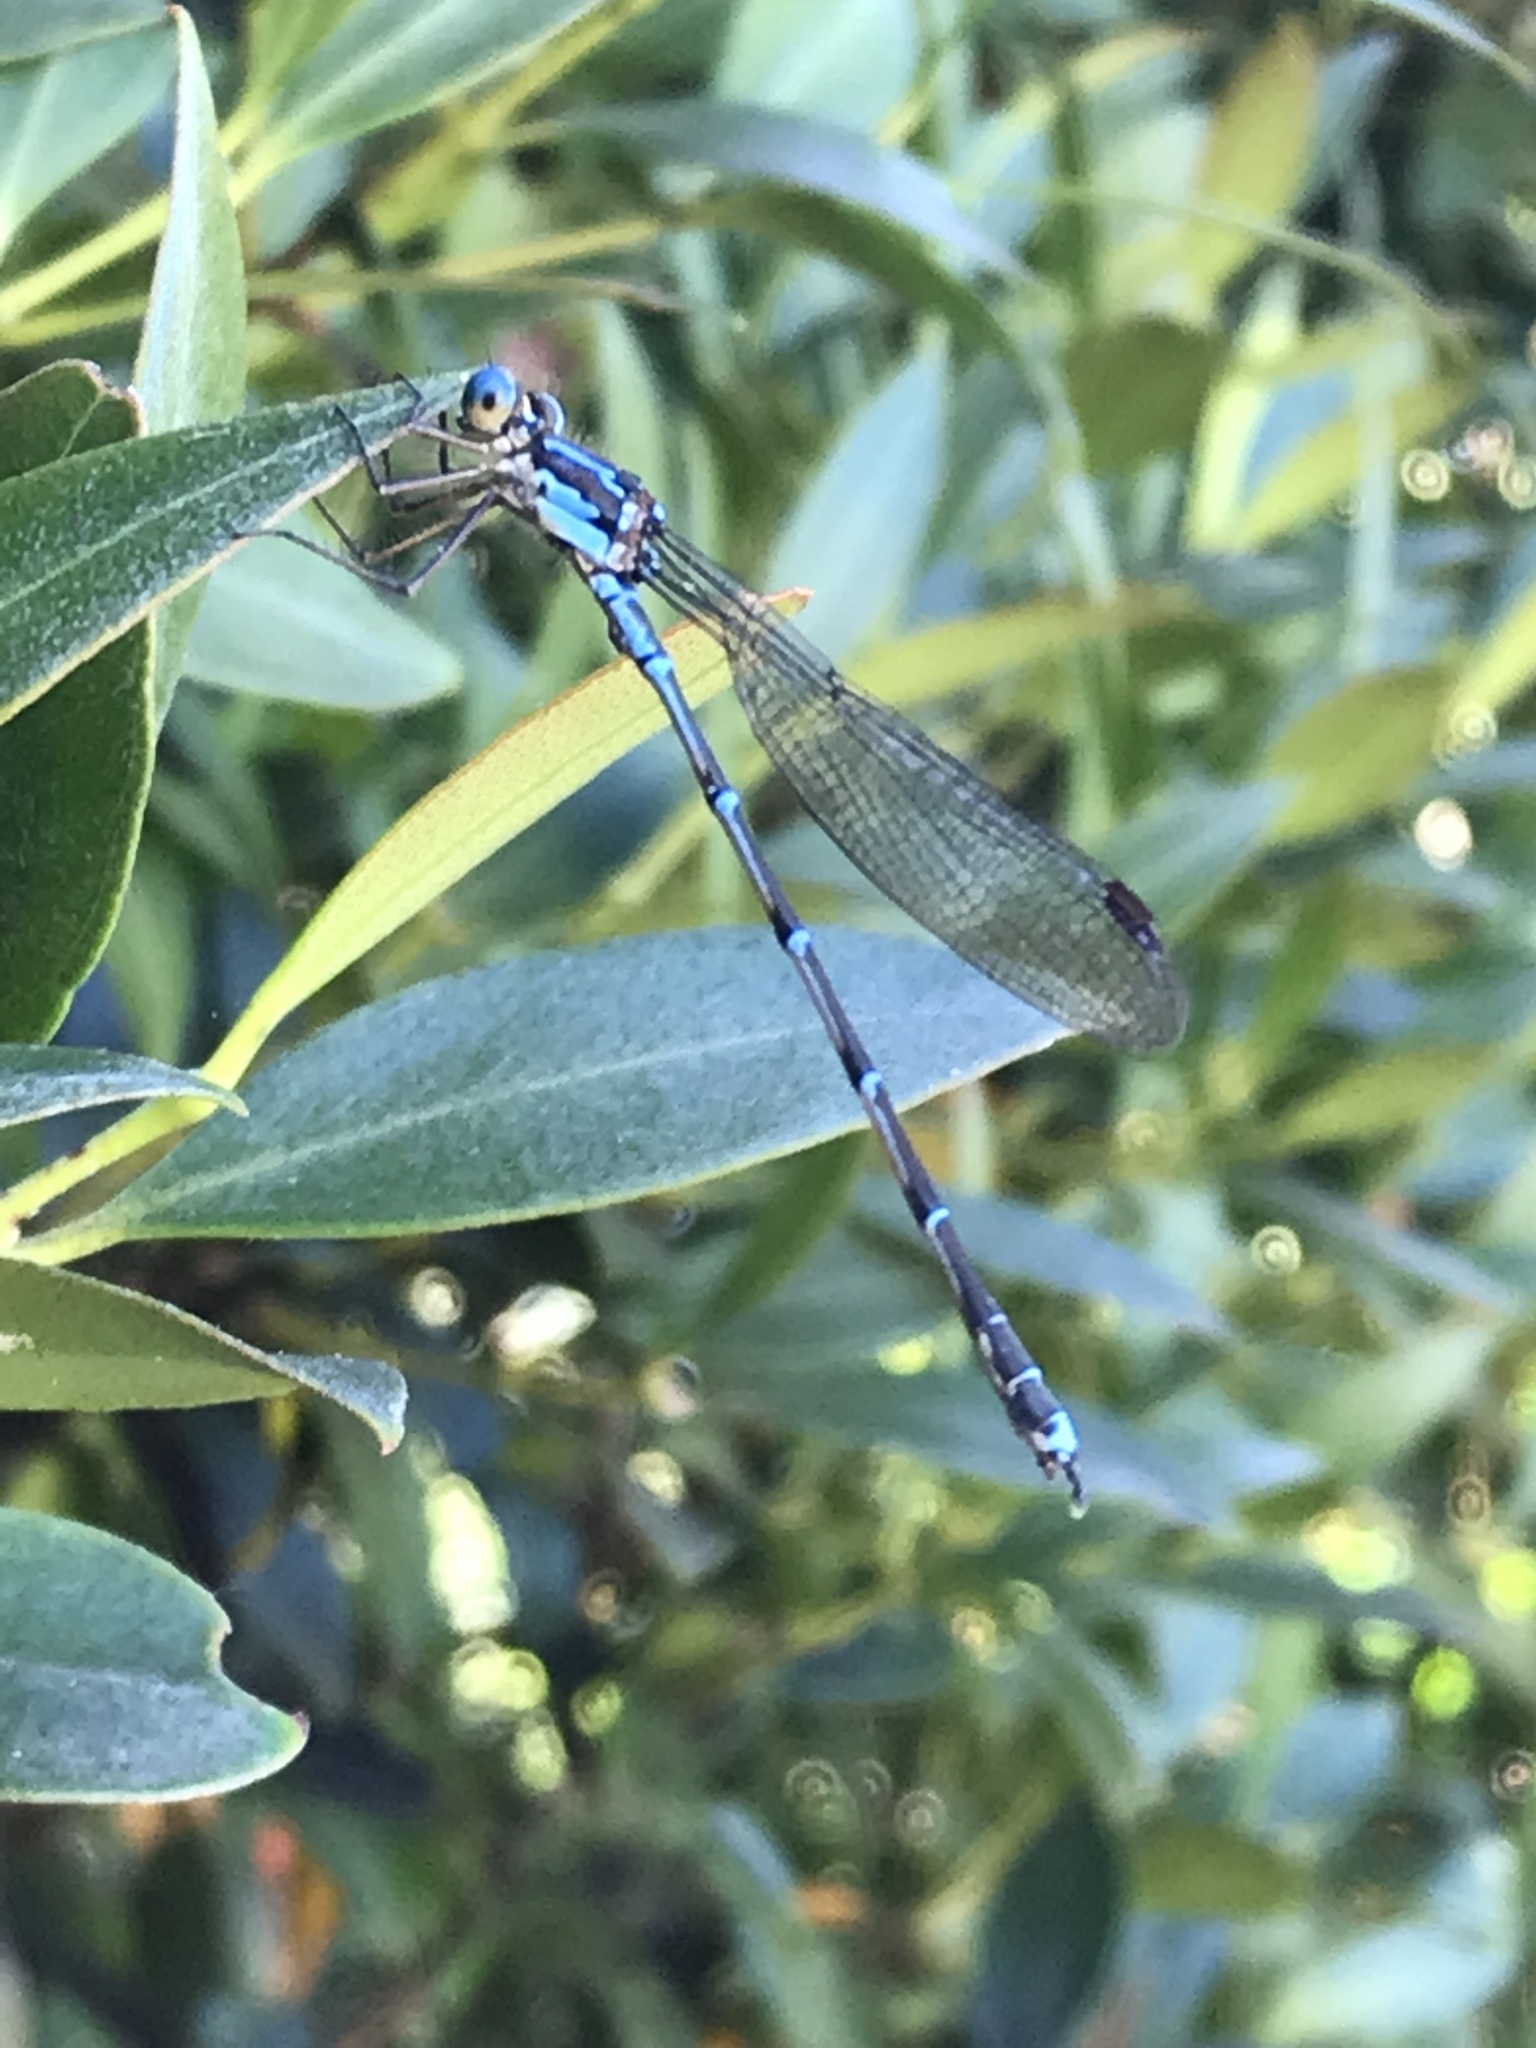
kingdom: Animalia
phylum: Arthropoda
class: Insecta
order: Odonata
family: Lestidae
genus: Austrolestes
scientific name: Austrolestes colensonis
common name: Blue damselfly
